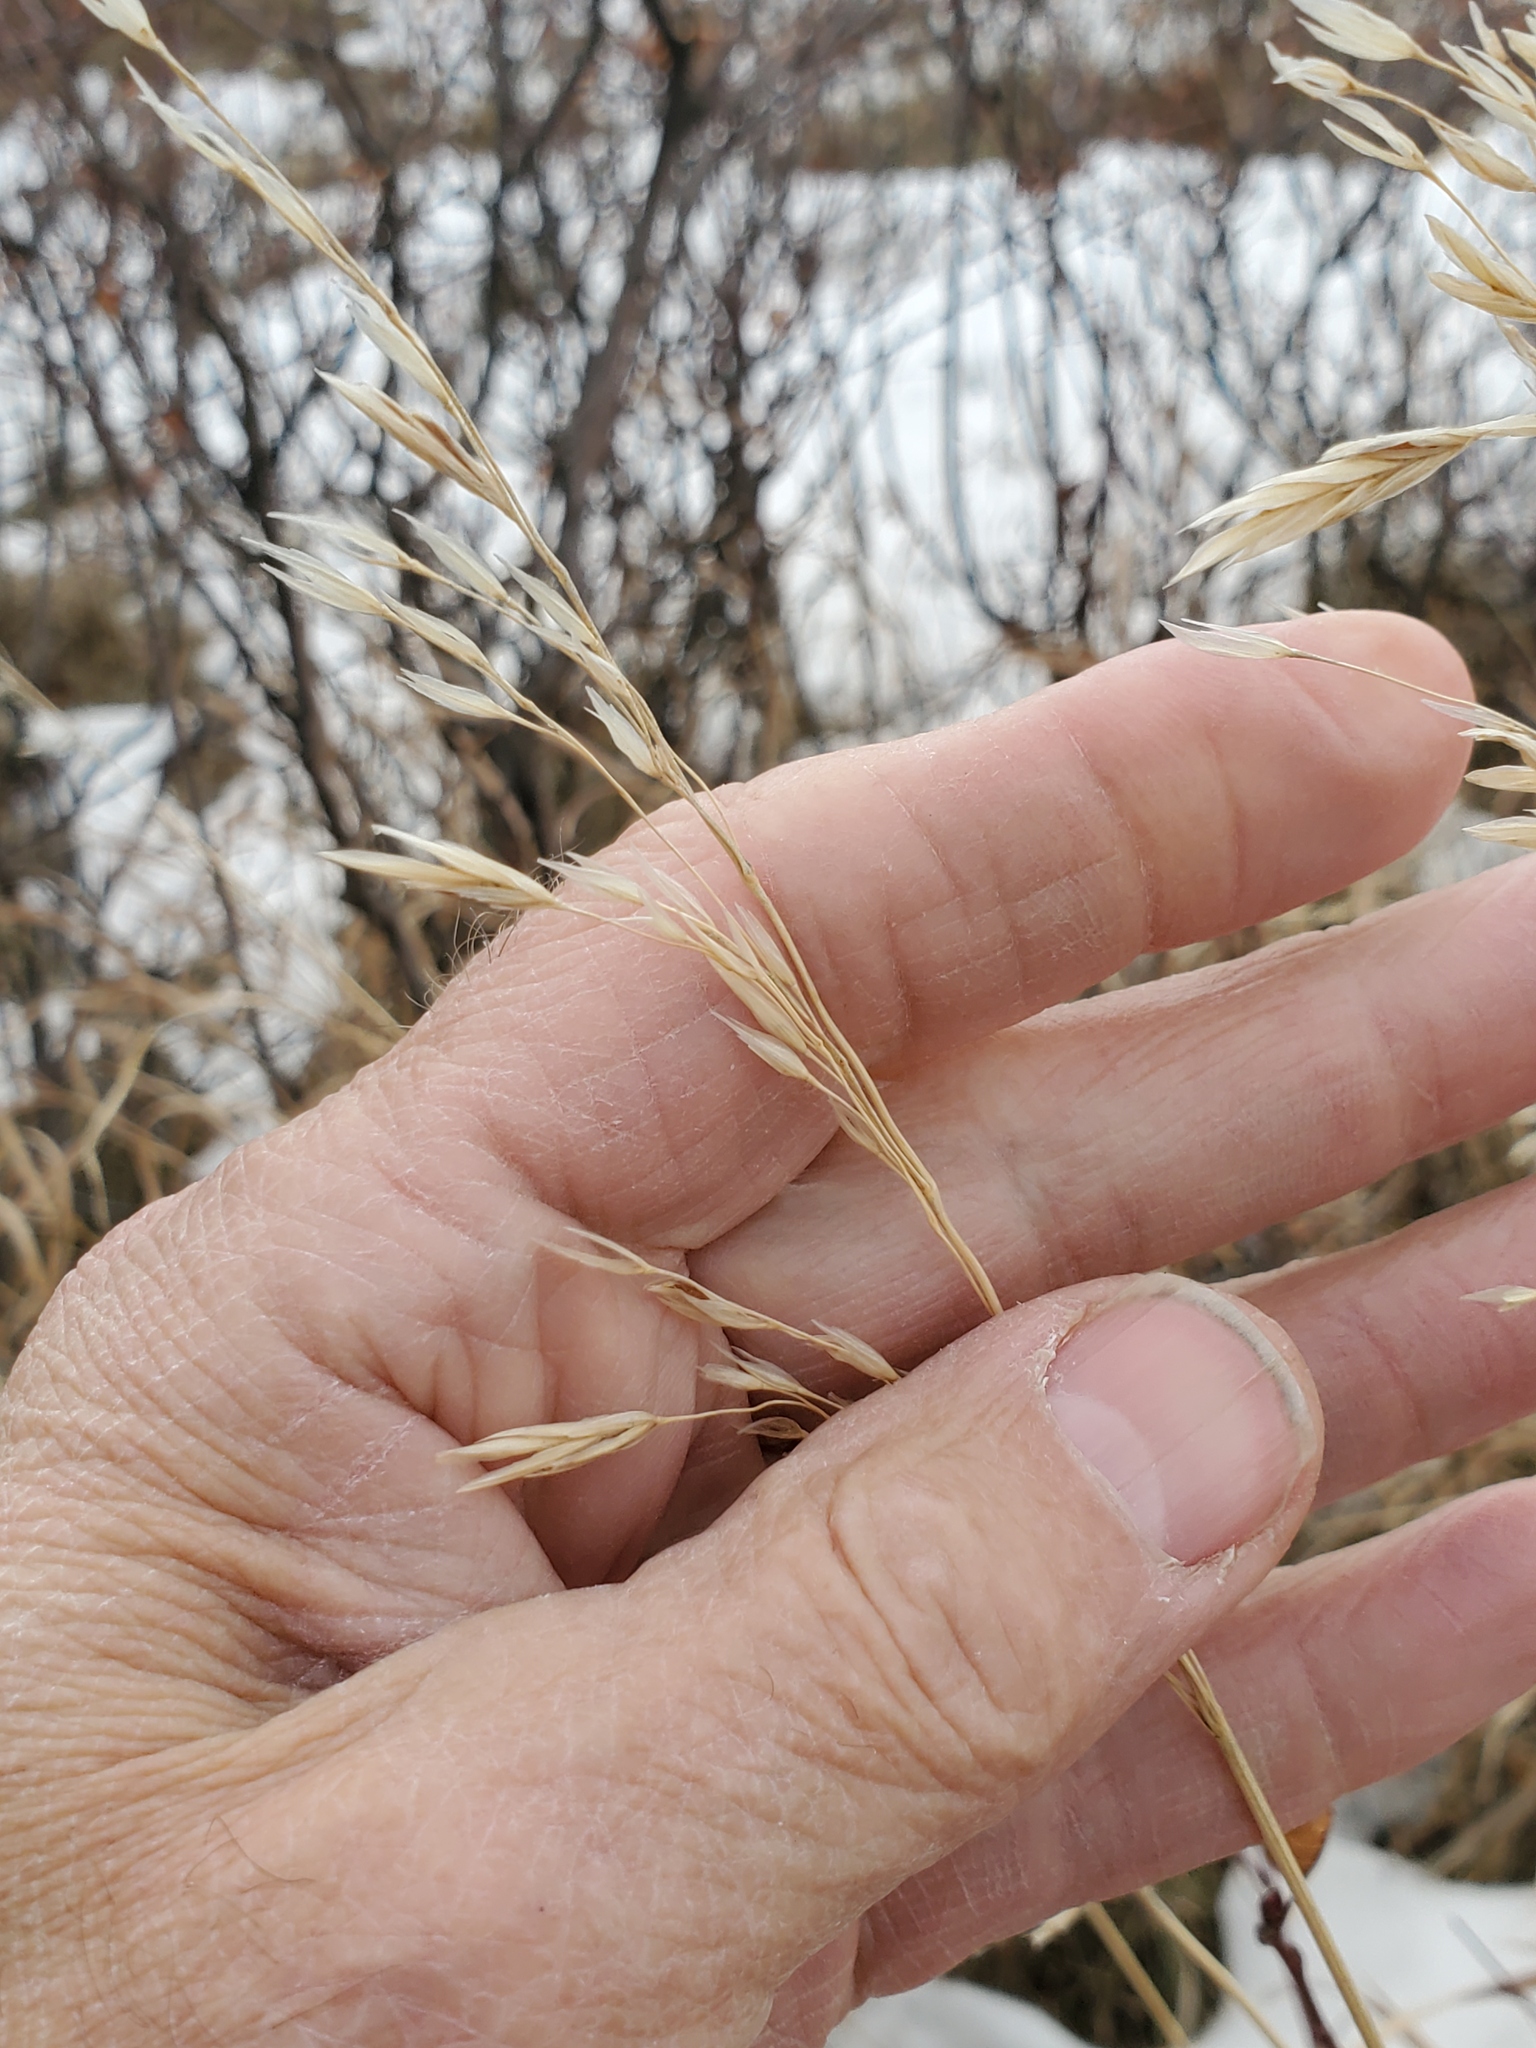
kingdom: Plantae
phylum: Tracheophyta
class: Liliopsida
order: Poales
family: Poaceae
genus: Bromus
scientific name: Bromus inermis
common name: Smooth brome
